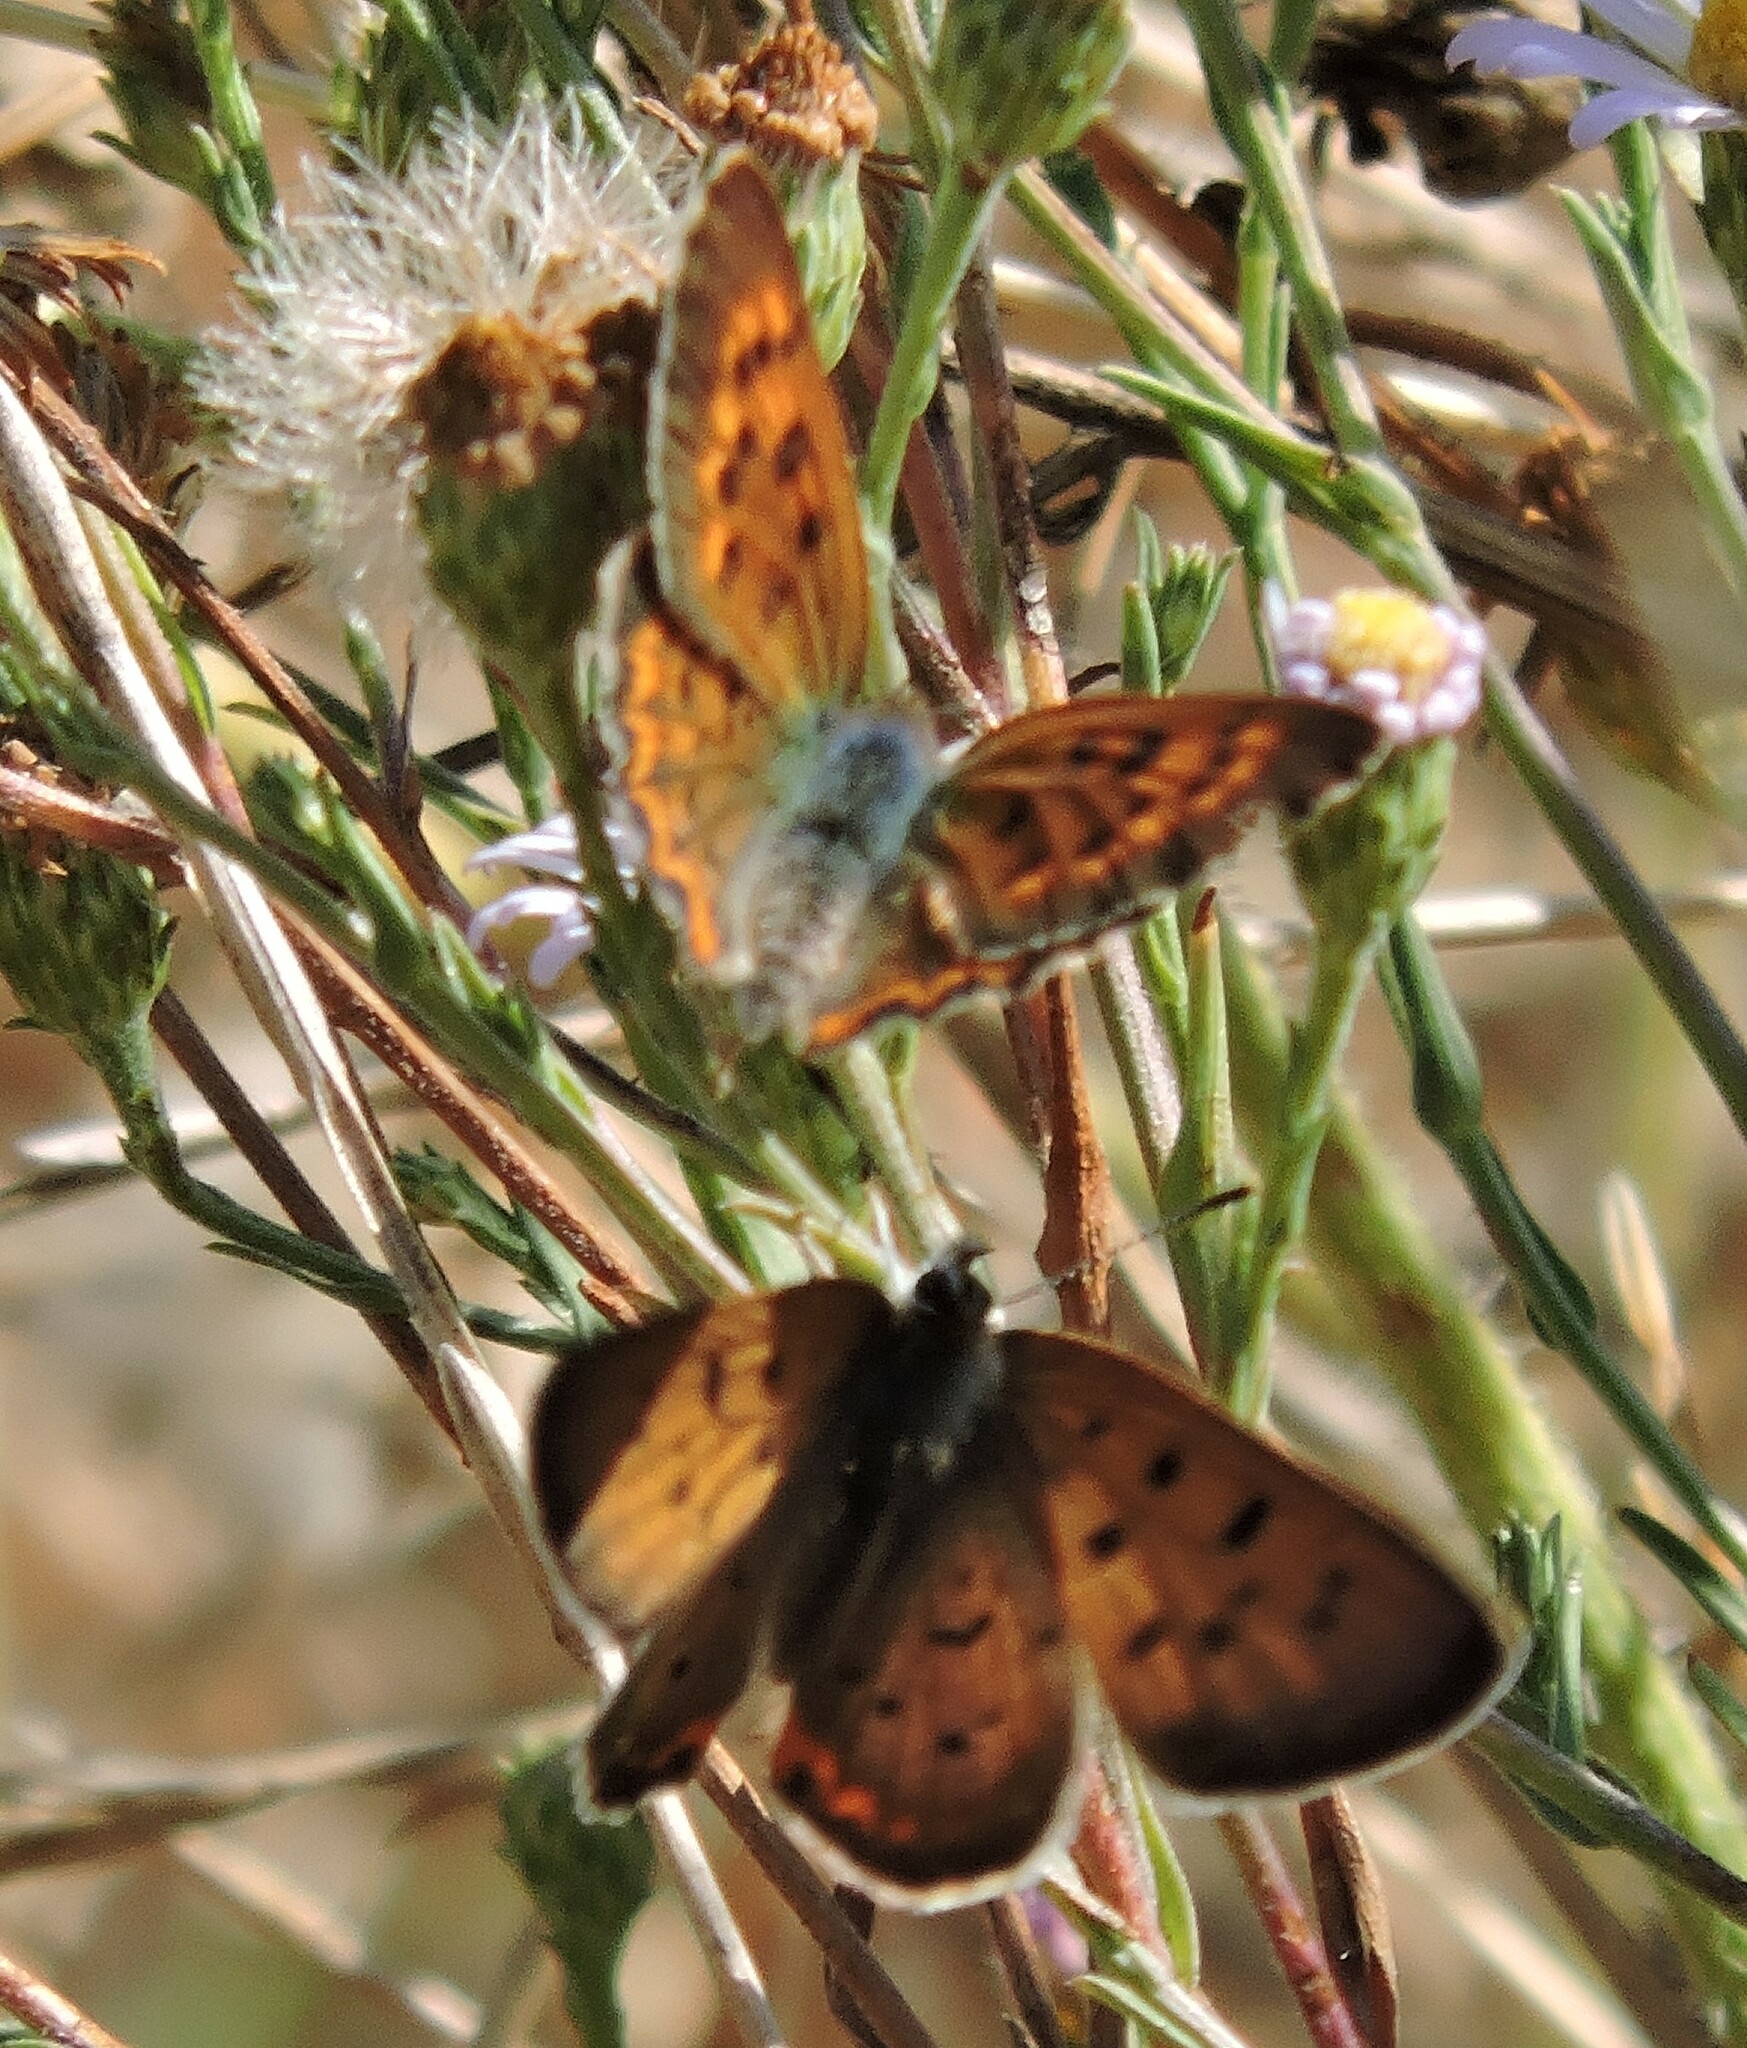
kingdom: Animalia
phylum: Arthropoda
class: Insecta
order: Lepidoptera
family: Lycaenidae
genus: Tharsalea
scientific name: Tharsalea helloides
